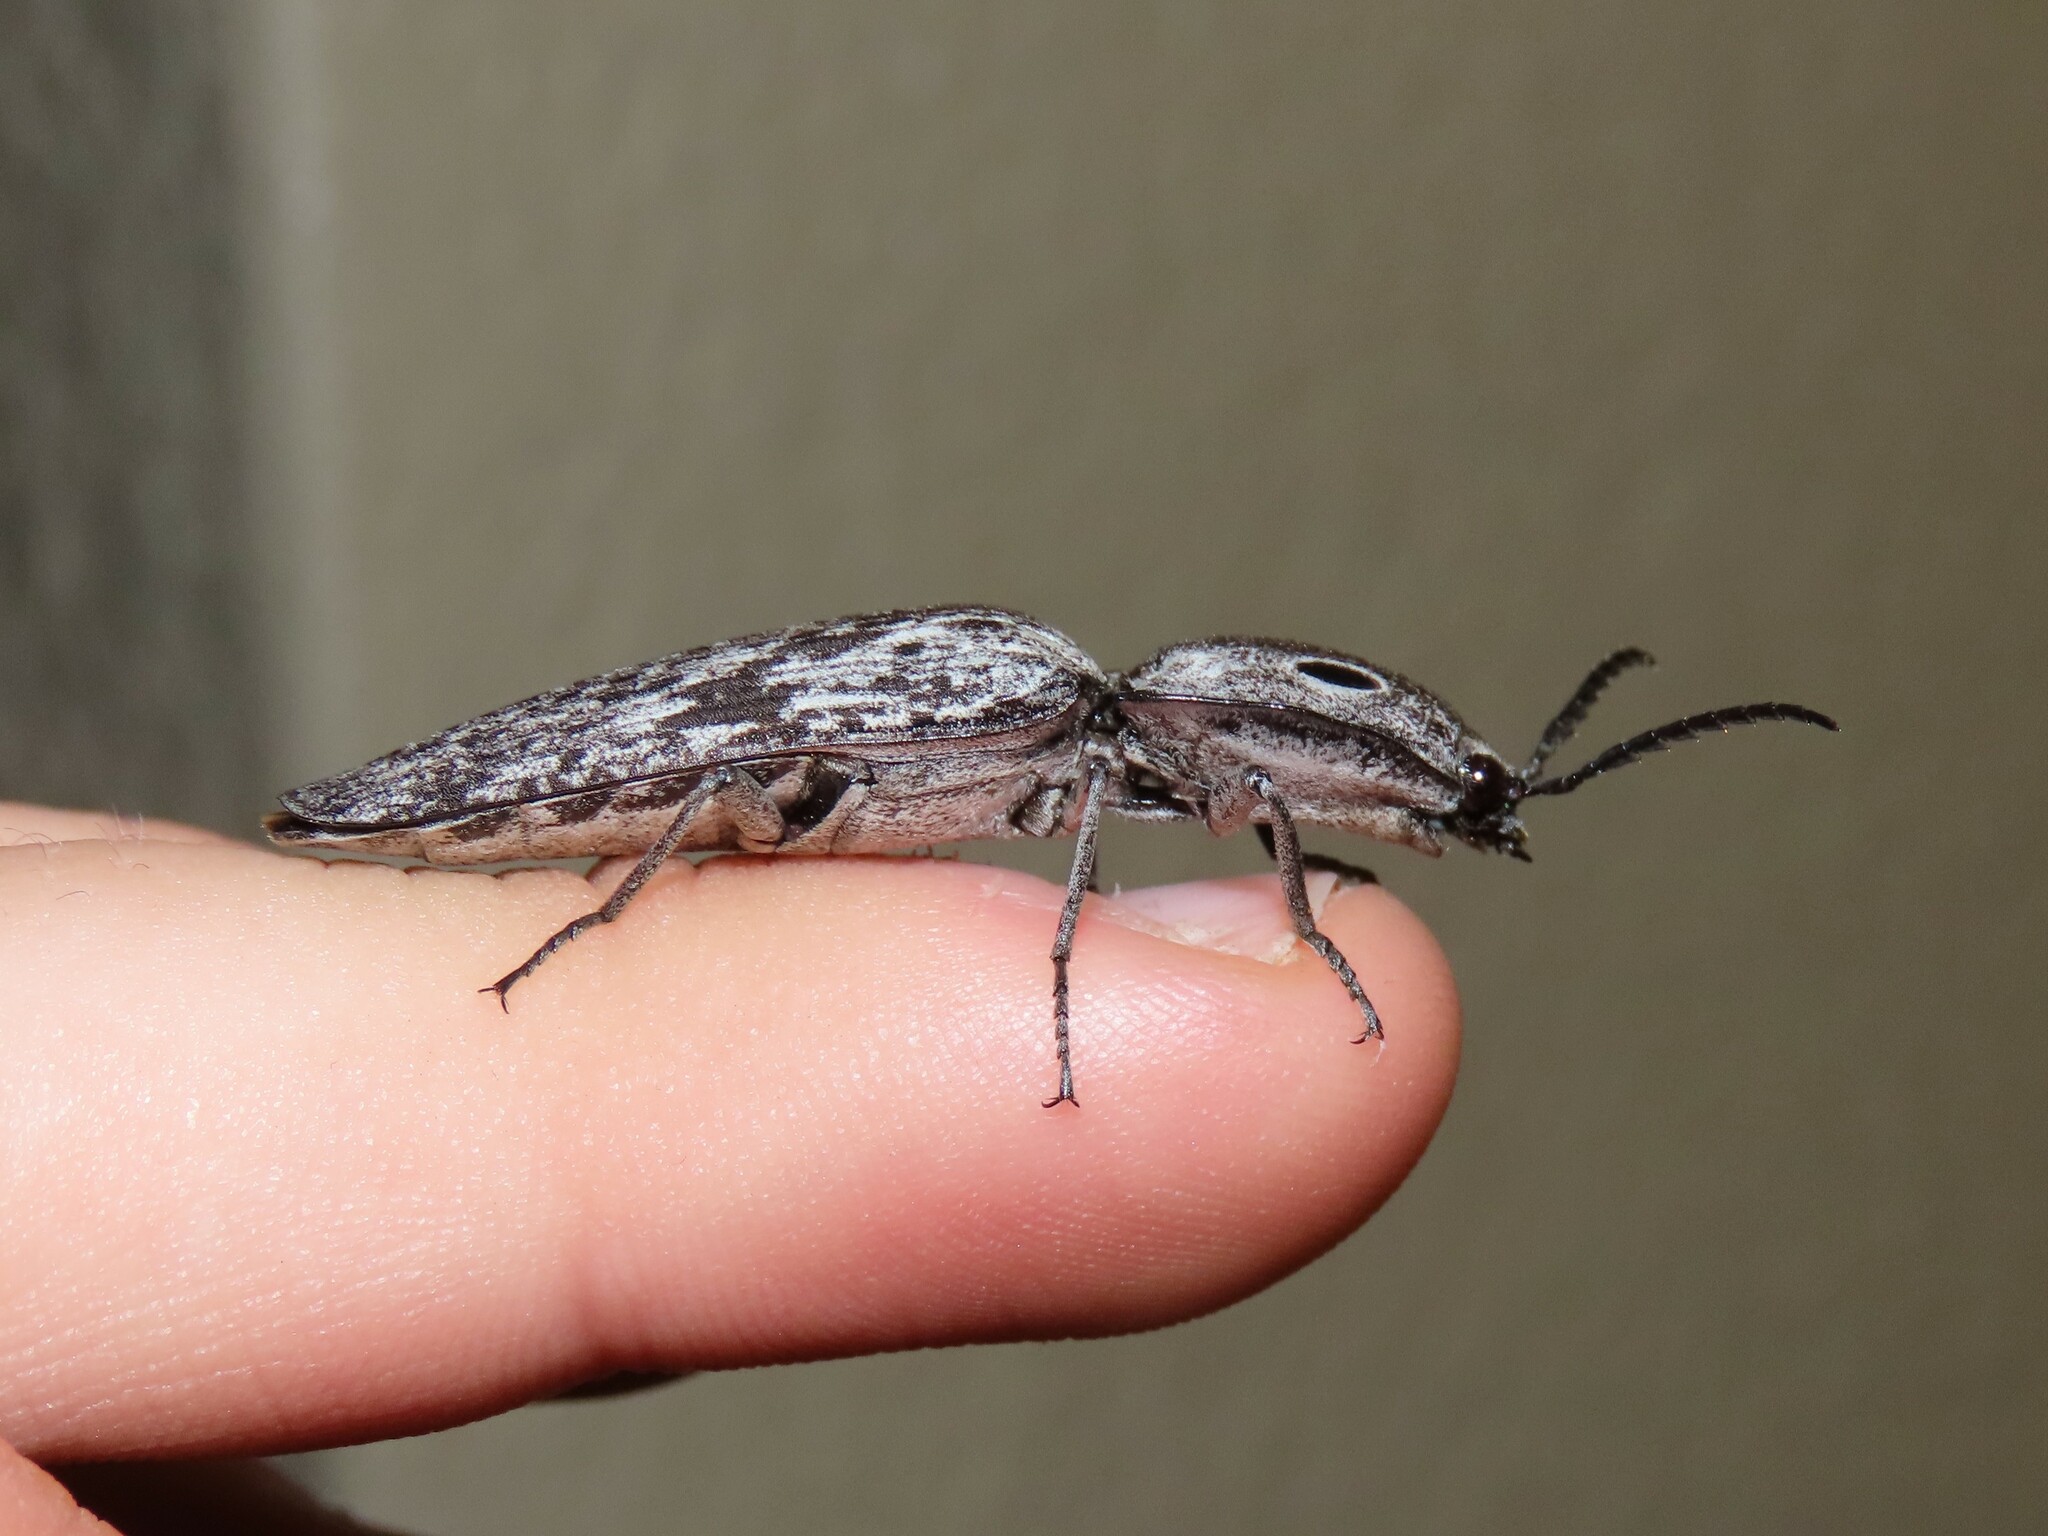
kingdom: Animalia
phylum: Arthropoda
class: Insecta
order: Coleoptera
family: Elateridae
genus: Alaus
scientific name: Alaus myops
